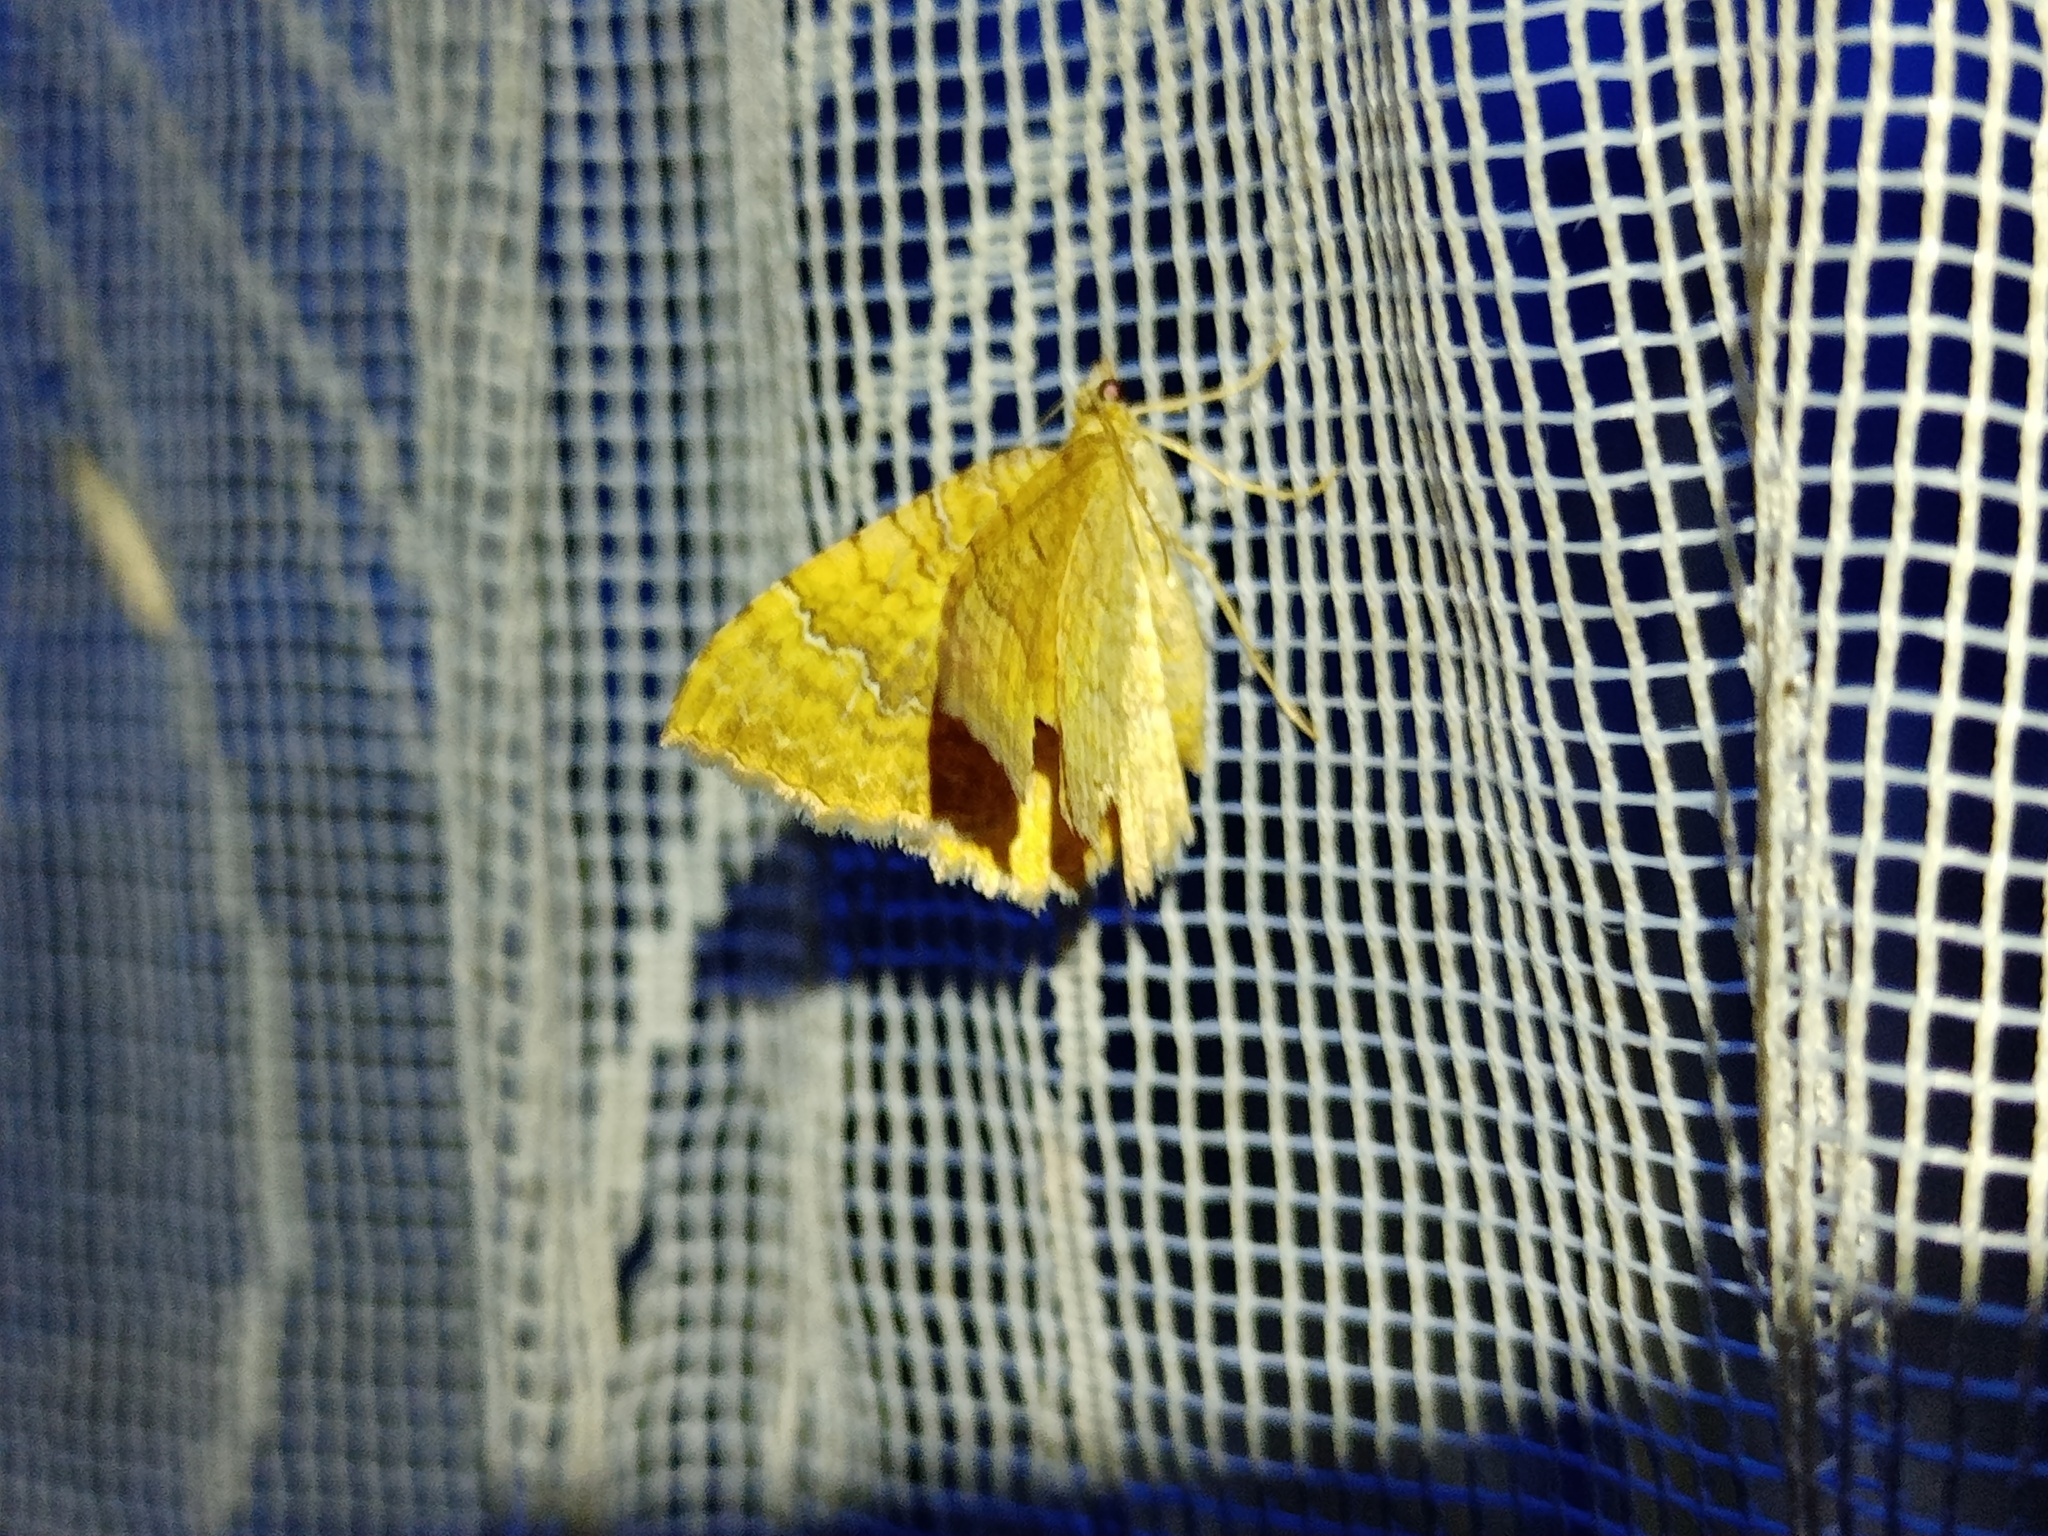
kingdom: Animalia
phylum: Arthropoda
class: Insecta
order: Lepidoptera
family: Geometridae
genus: Camptogramma
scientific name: Camptogramma bilineata
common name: Yellow shell
